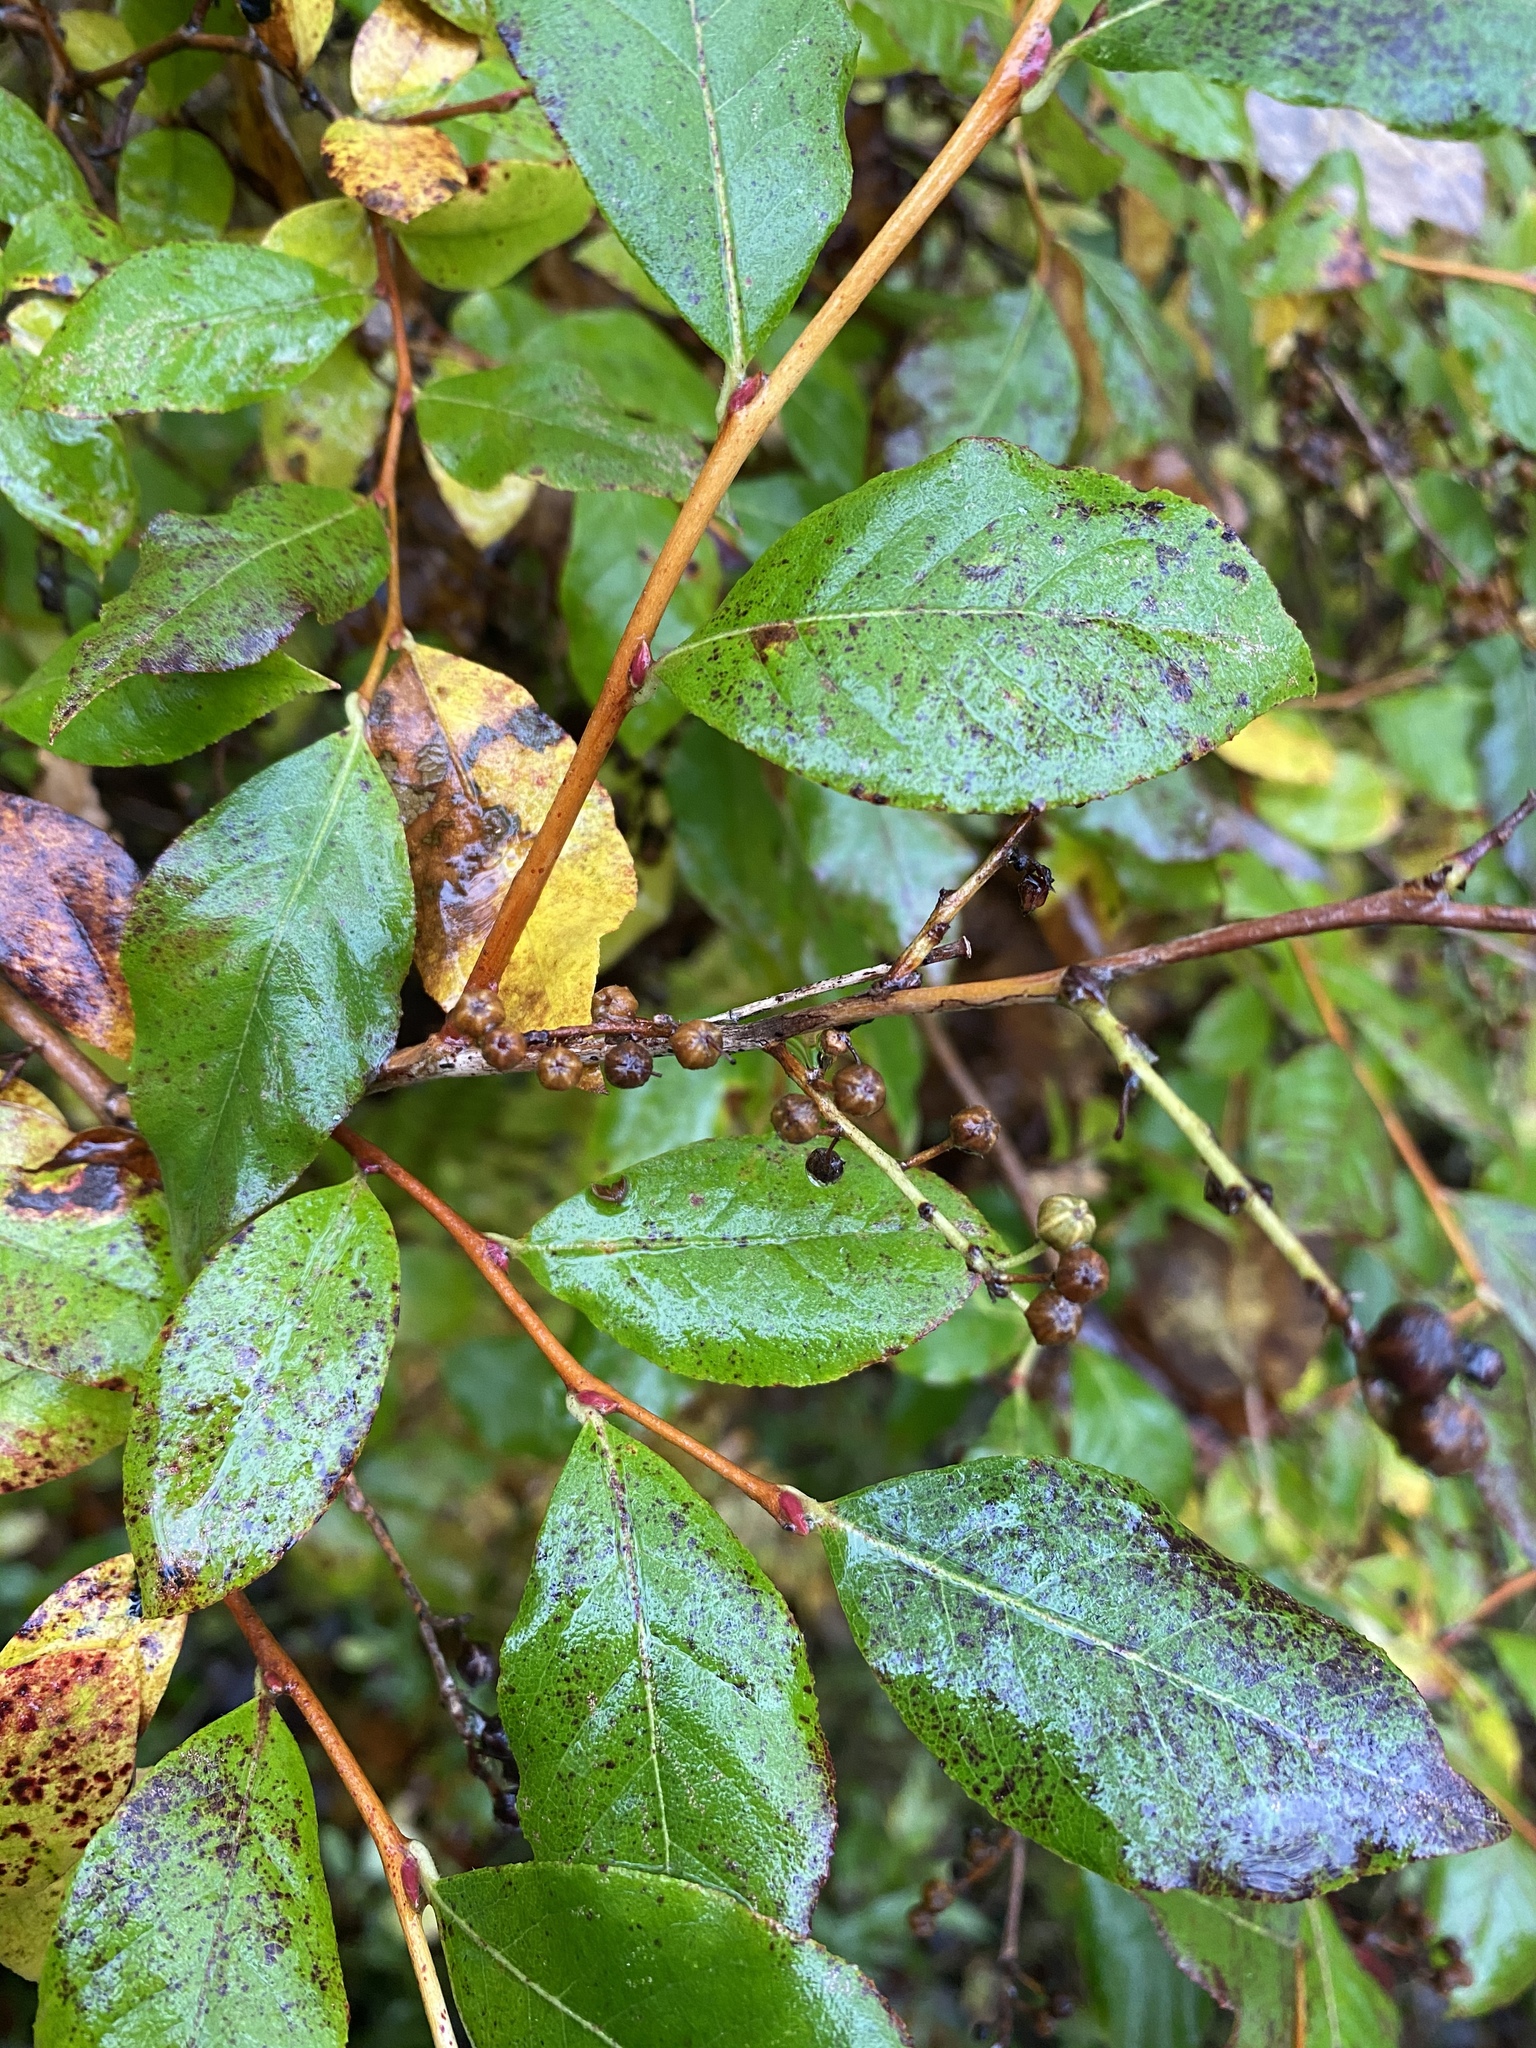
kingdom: Plantae
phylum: Tracheophyta
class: Magnoliopsida
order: Ericales
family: Ericaceae
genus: Lyonia
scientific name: Lyonia ligustrina
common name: Maleberry
